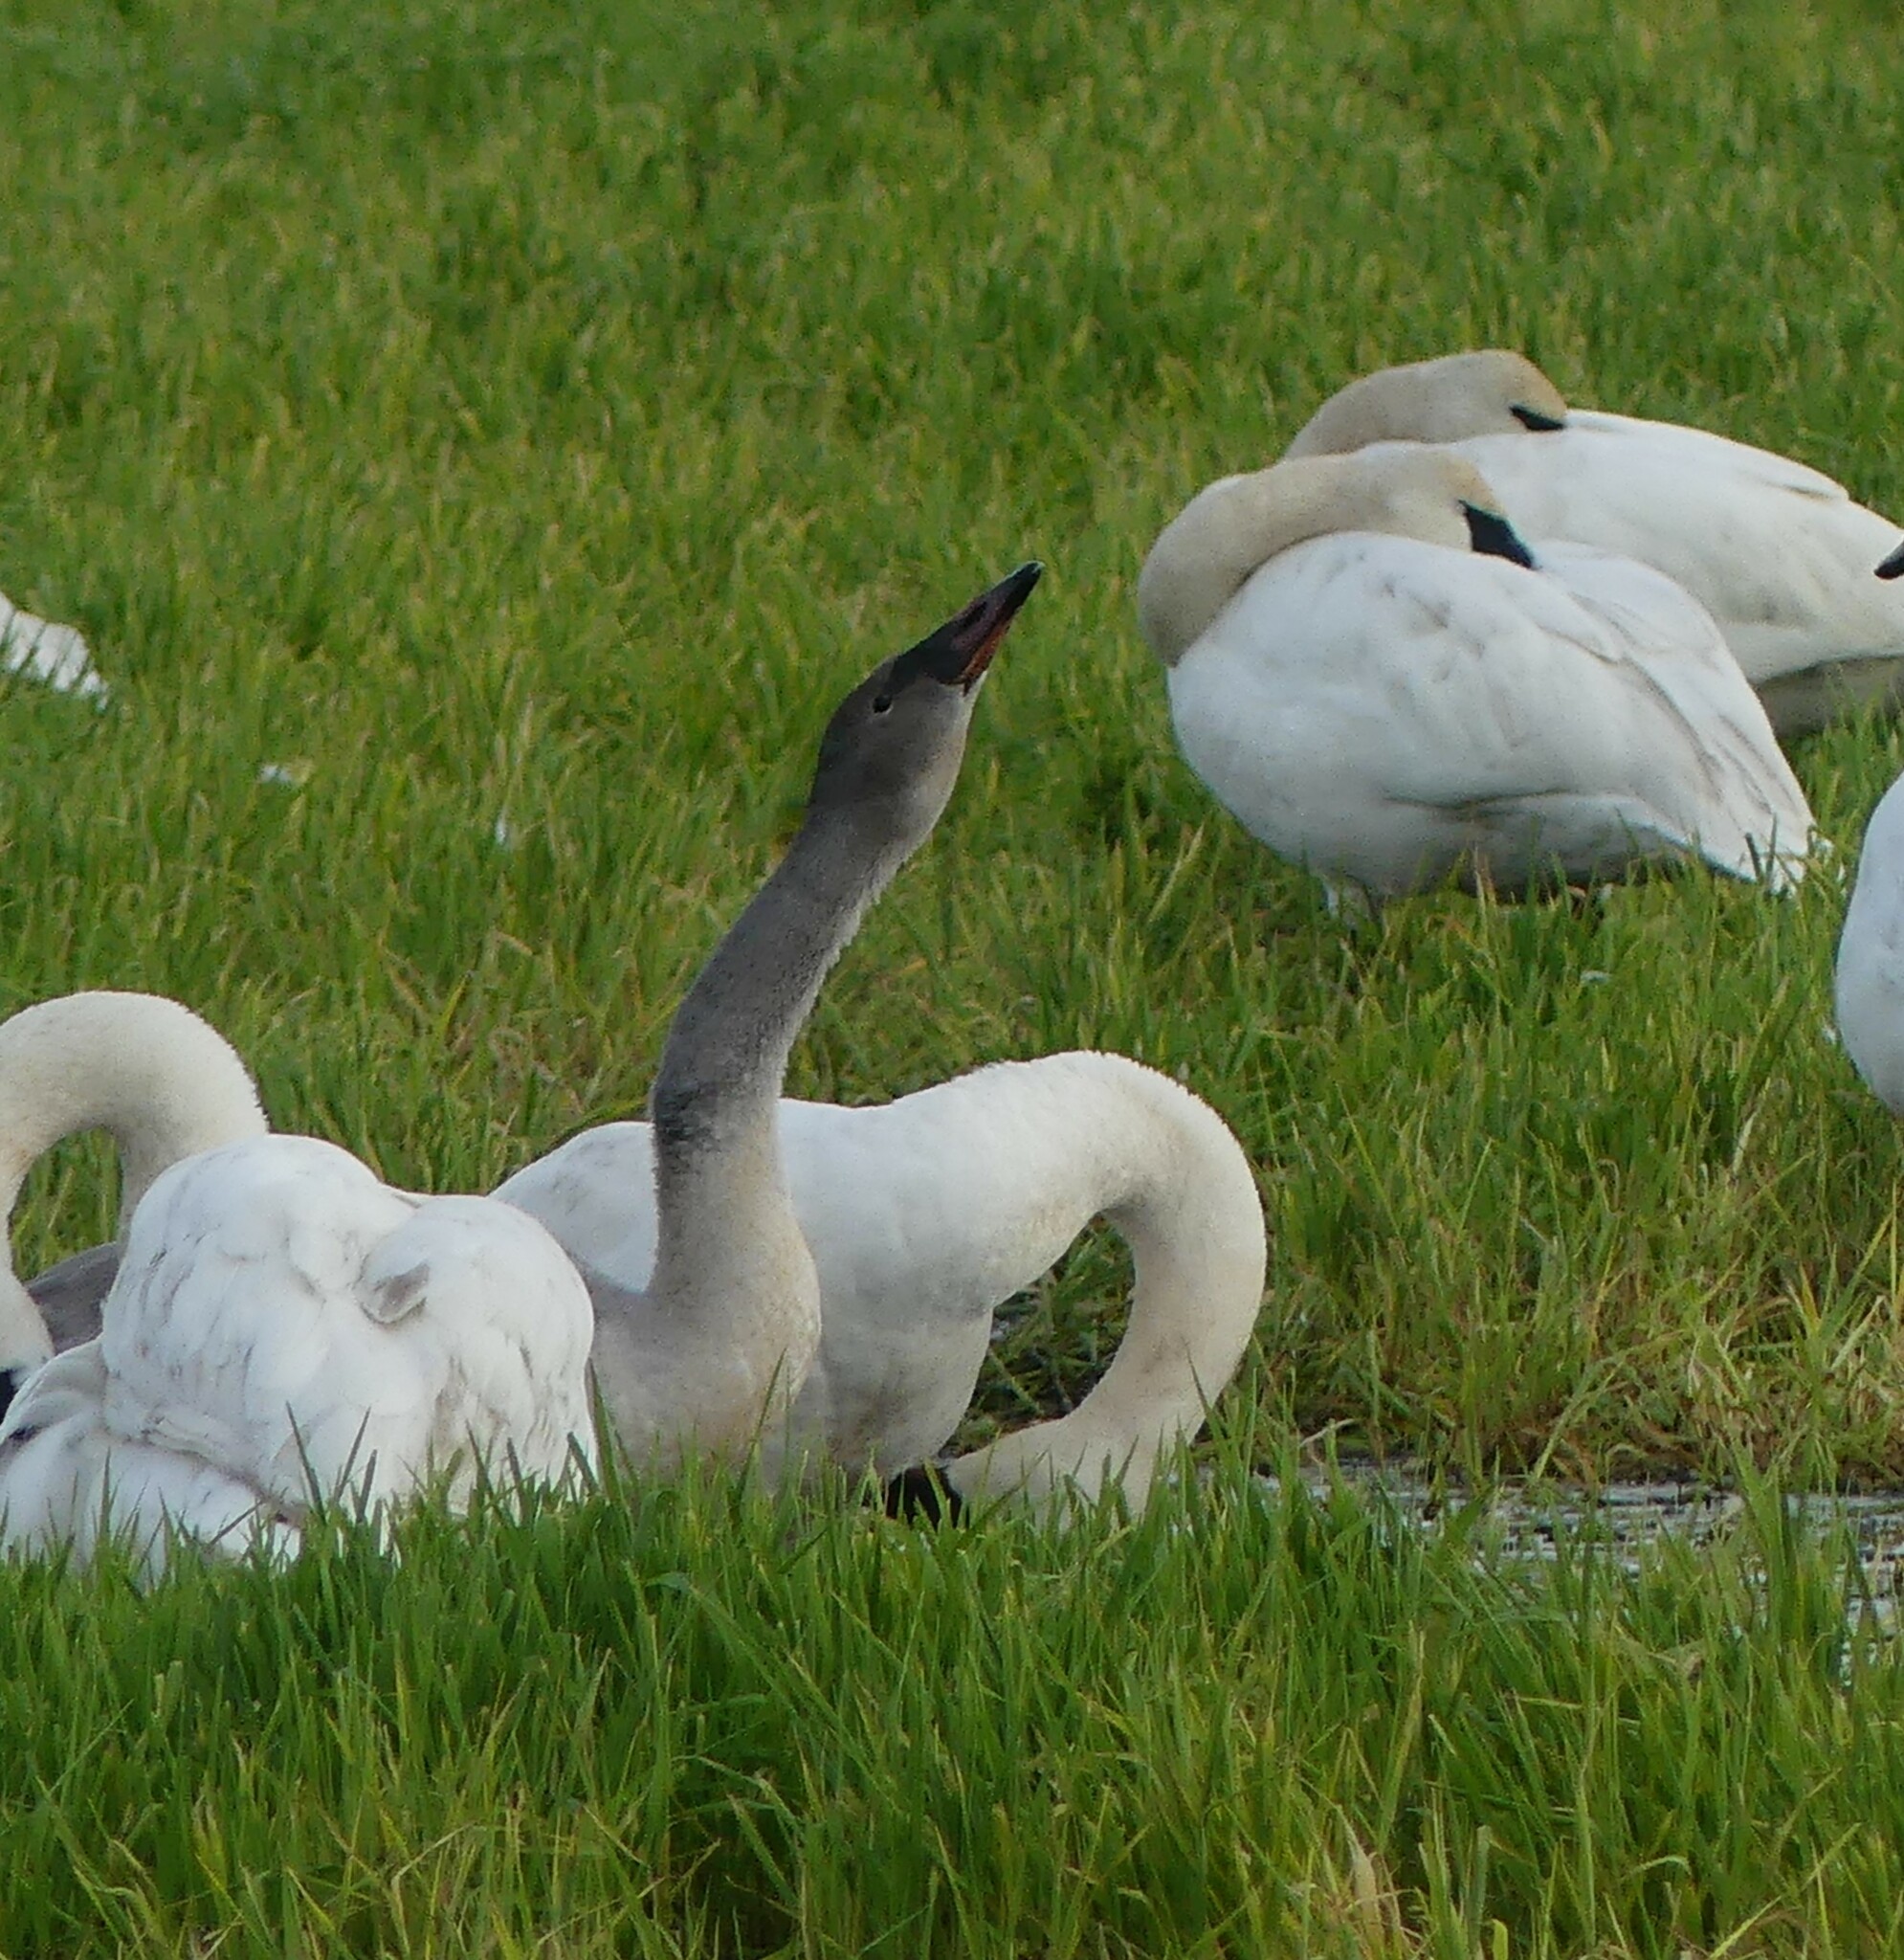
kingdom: Animalia
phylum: Chordata
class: Aves
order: Anseriformes
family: Anatidae
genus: Cygnus
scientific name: Cygnus buccinator
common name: Trumpeter swan
